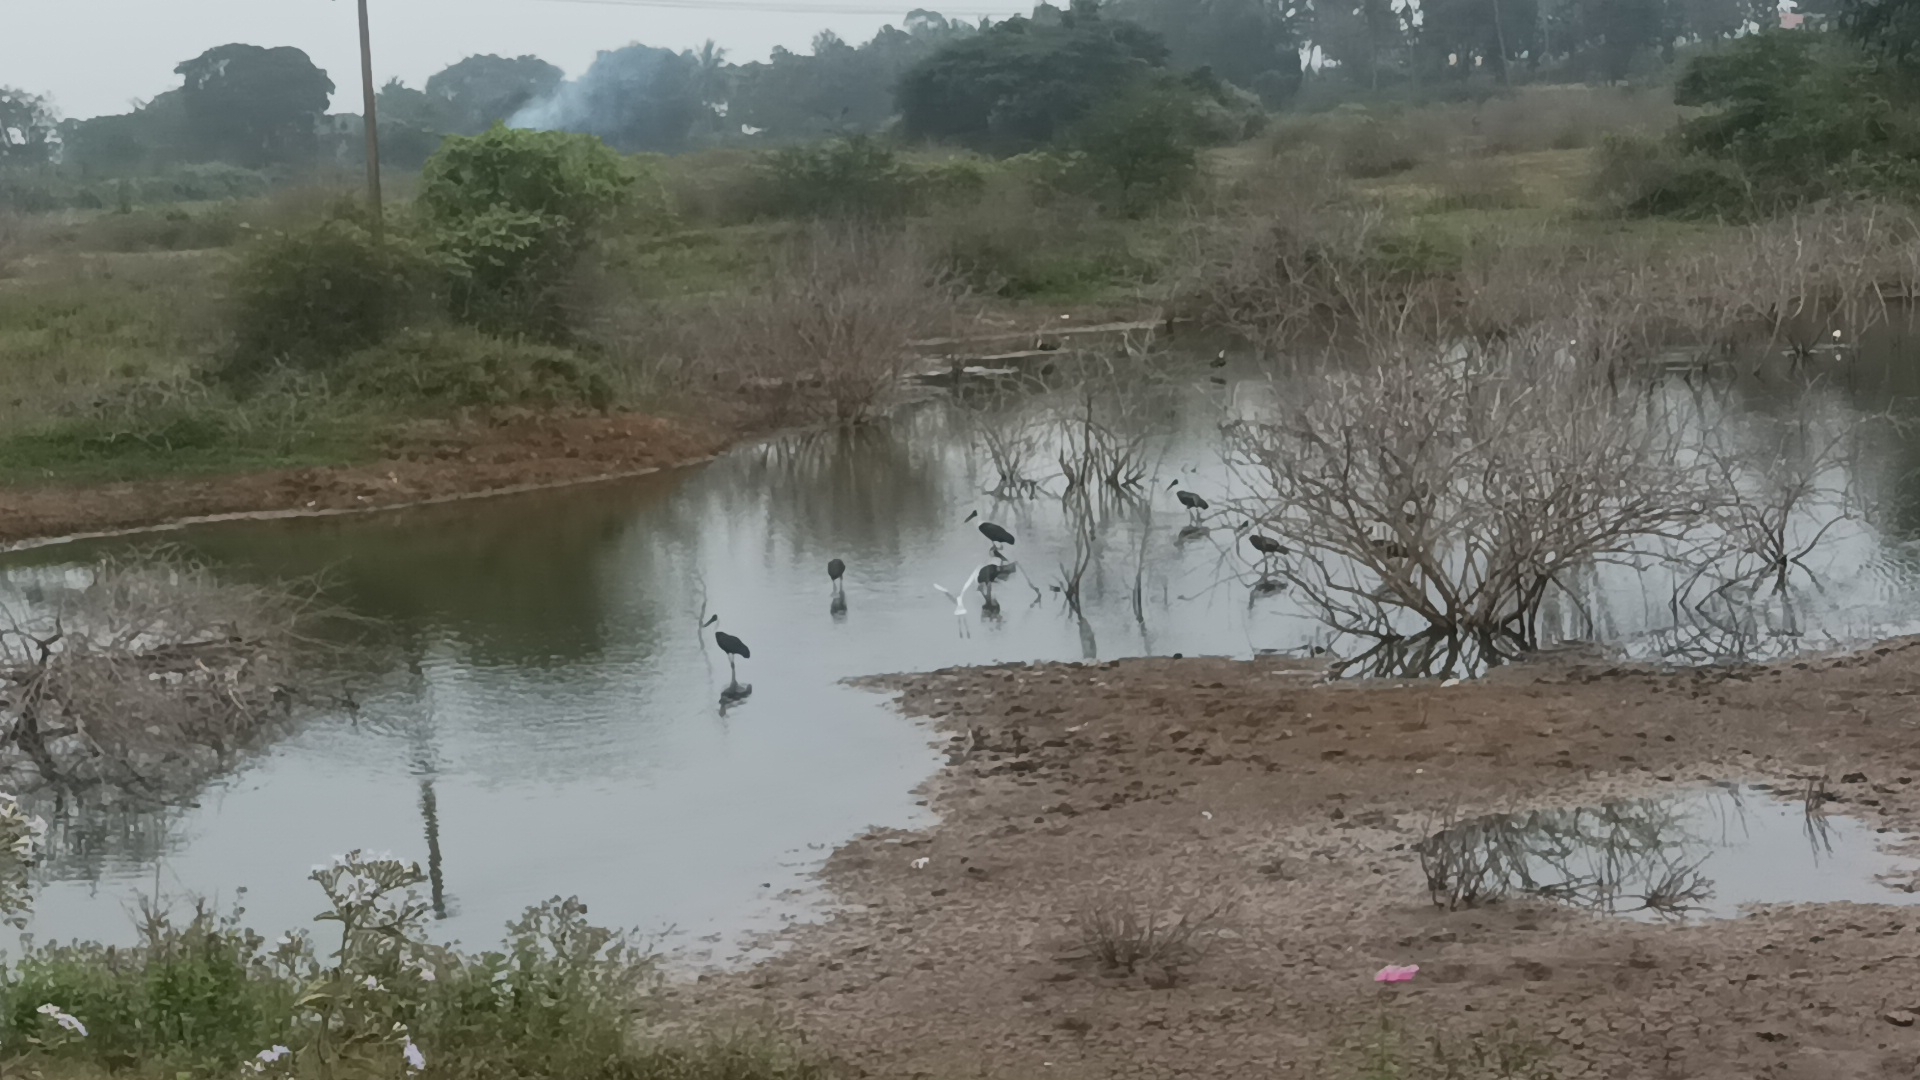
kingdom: Animalia
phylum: Chordata
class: Aves
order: Ciconiiformes
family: Ciconiidae
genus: Ciconia
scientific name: Ciconia episcopus
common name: Woolly-necked stork
